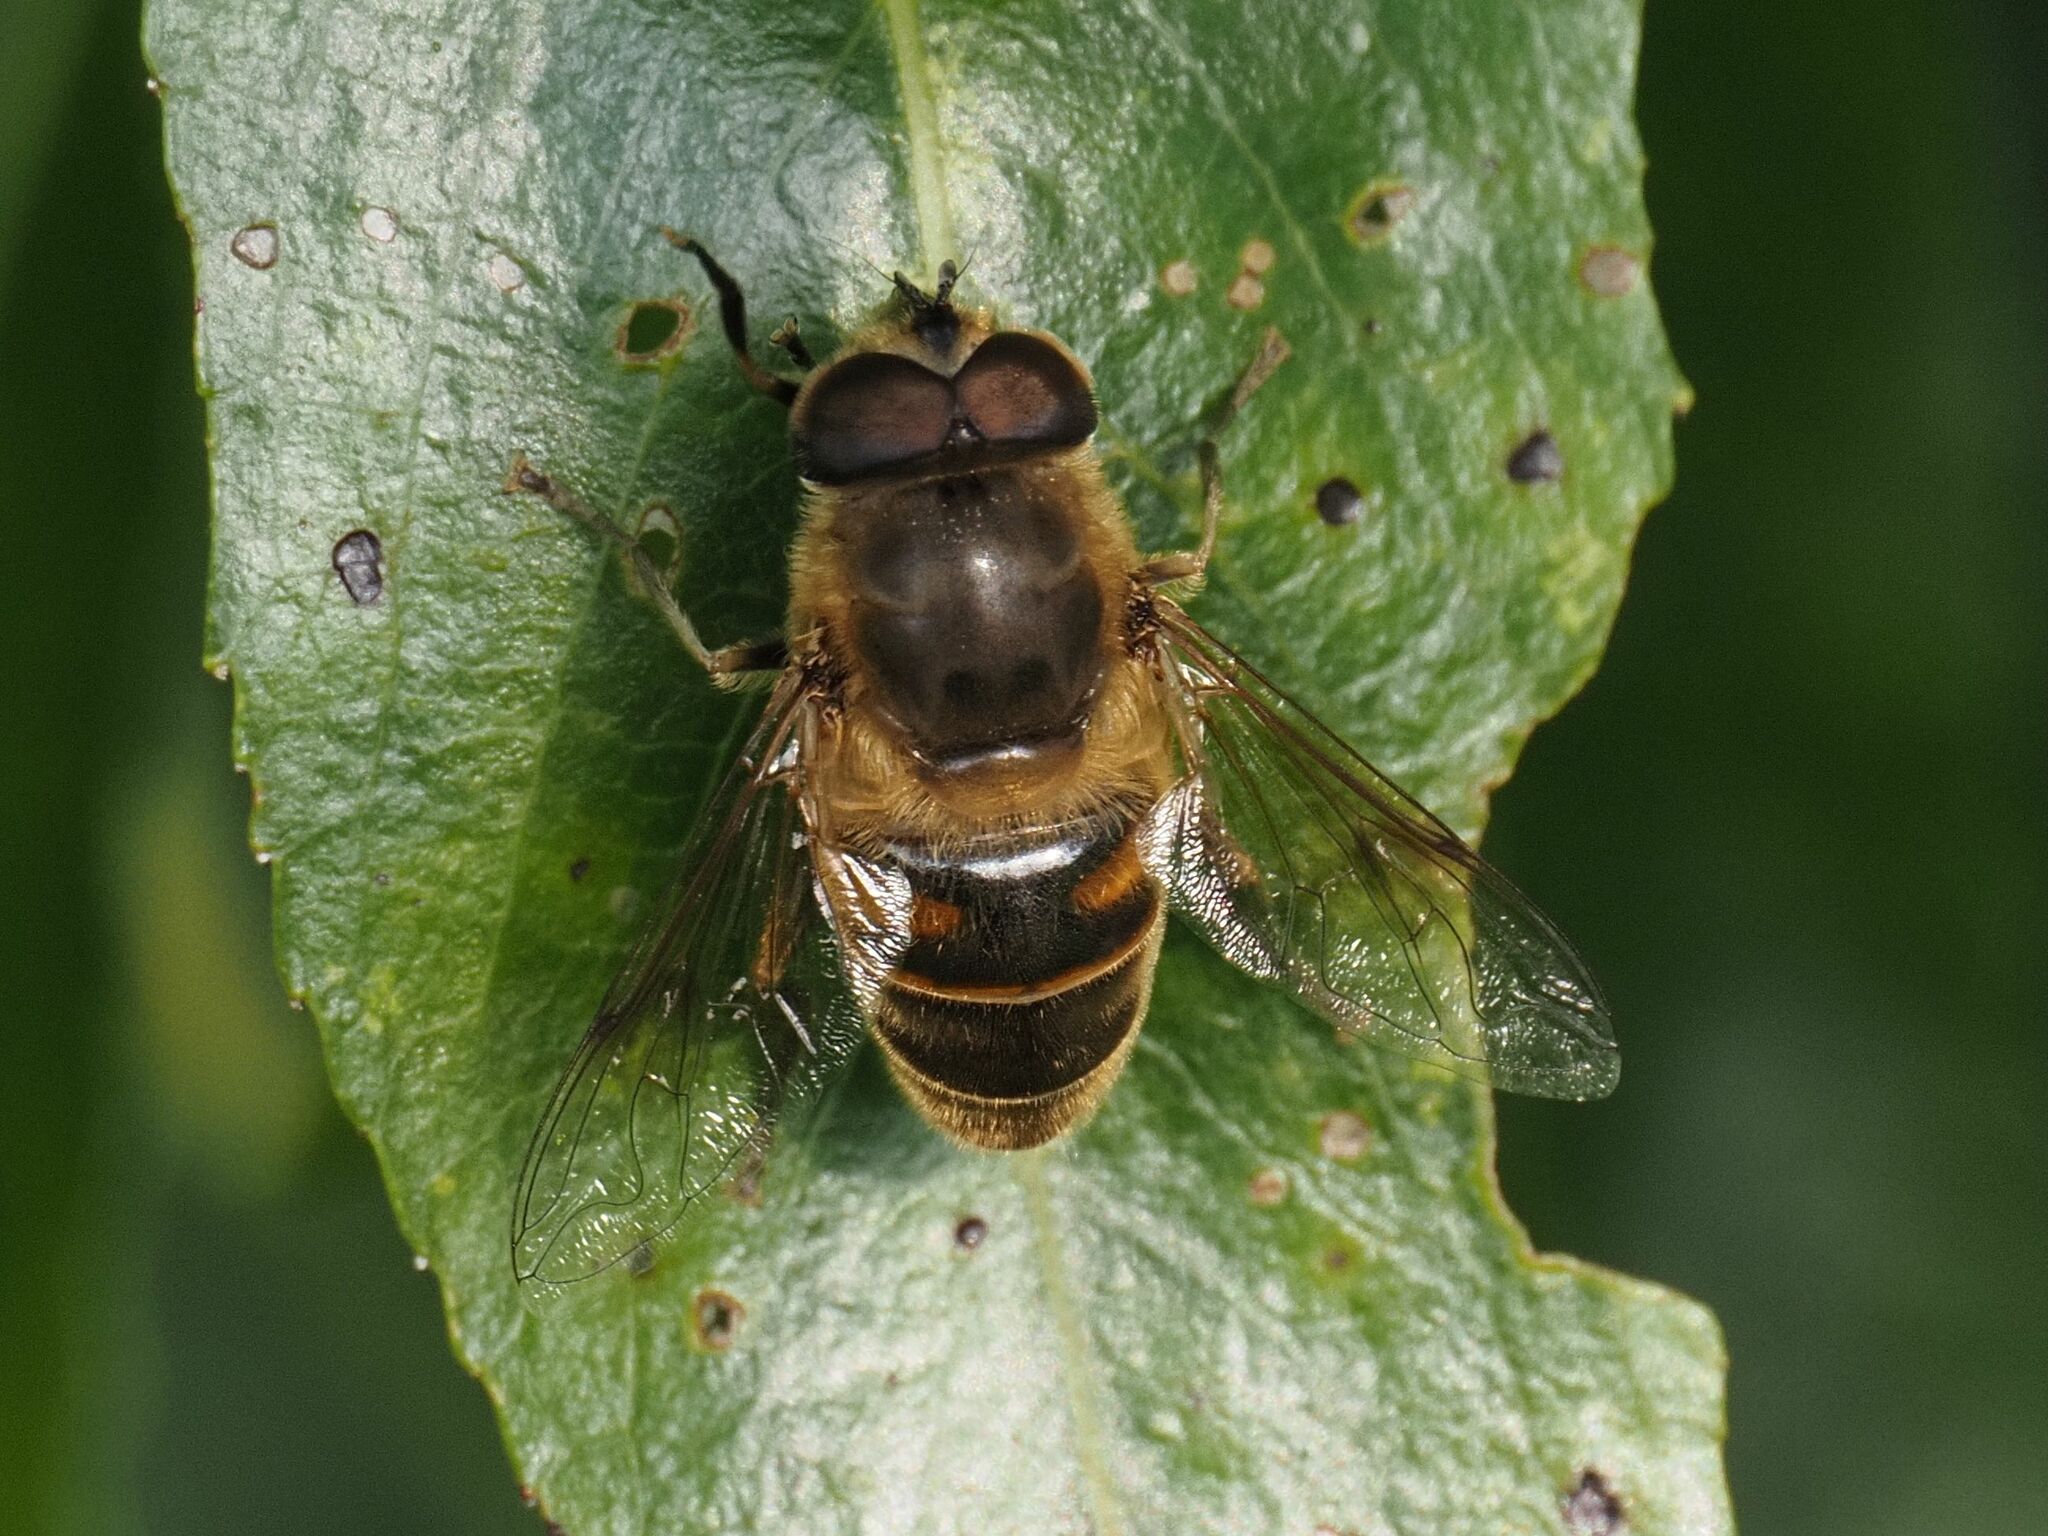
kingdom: Animalia
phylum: Arthropoda
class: Insecta
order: Diptera
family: Syrphidae
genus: Eristalis
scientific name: Eristalis tenax
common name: Drone fly
